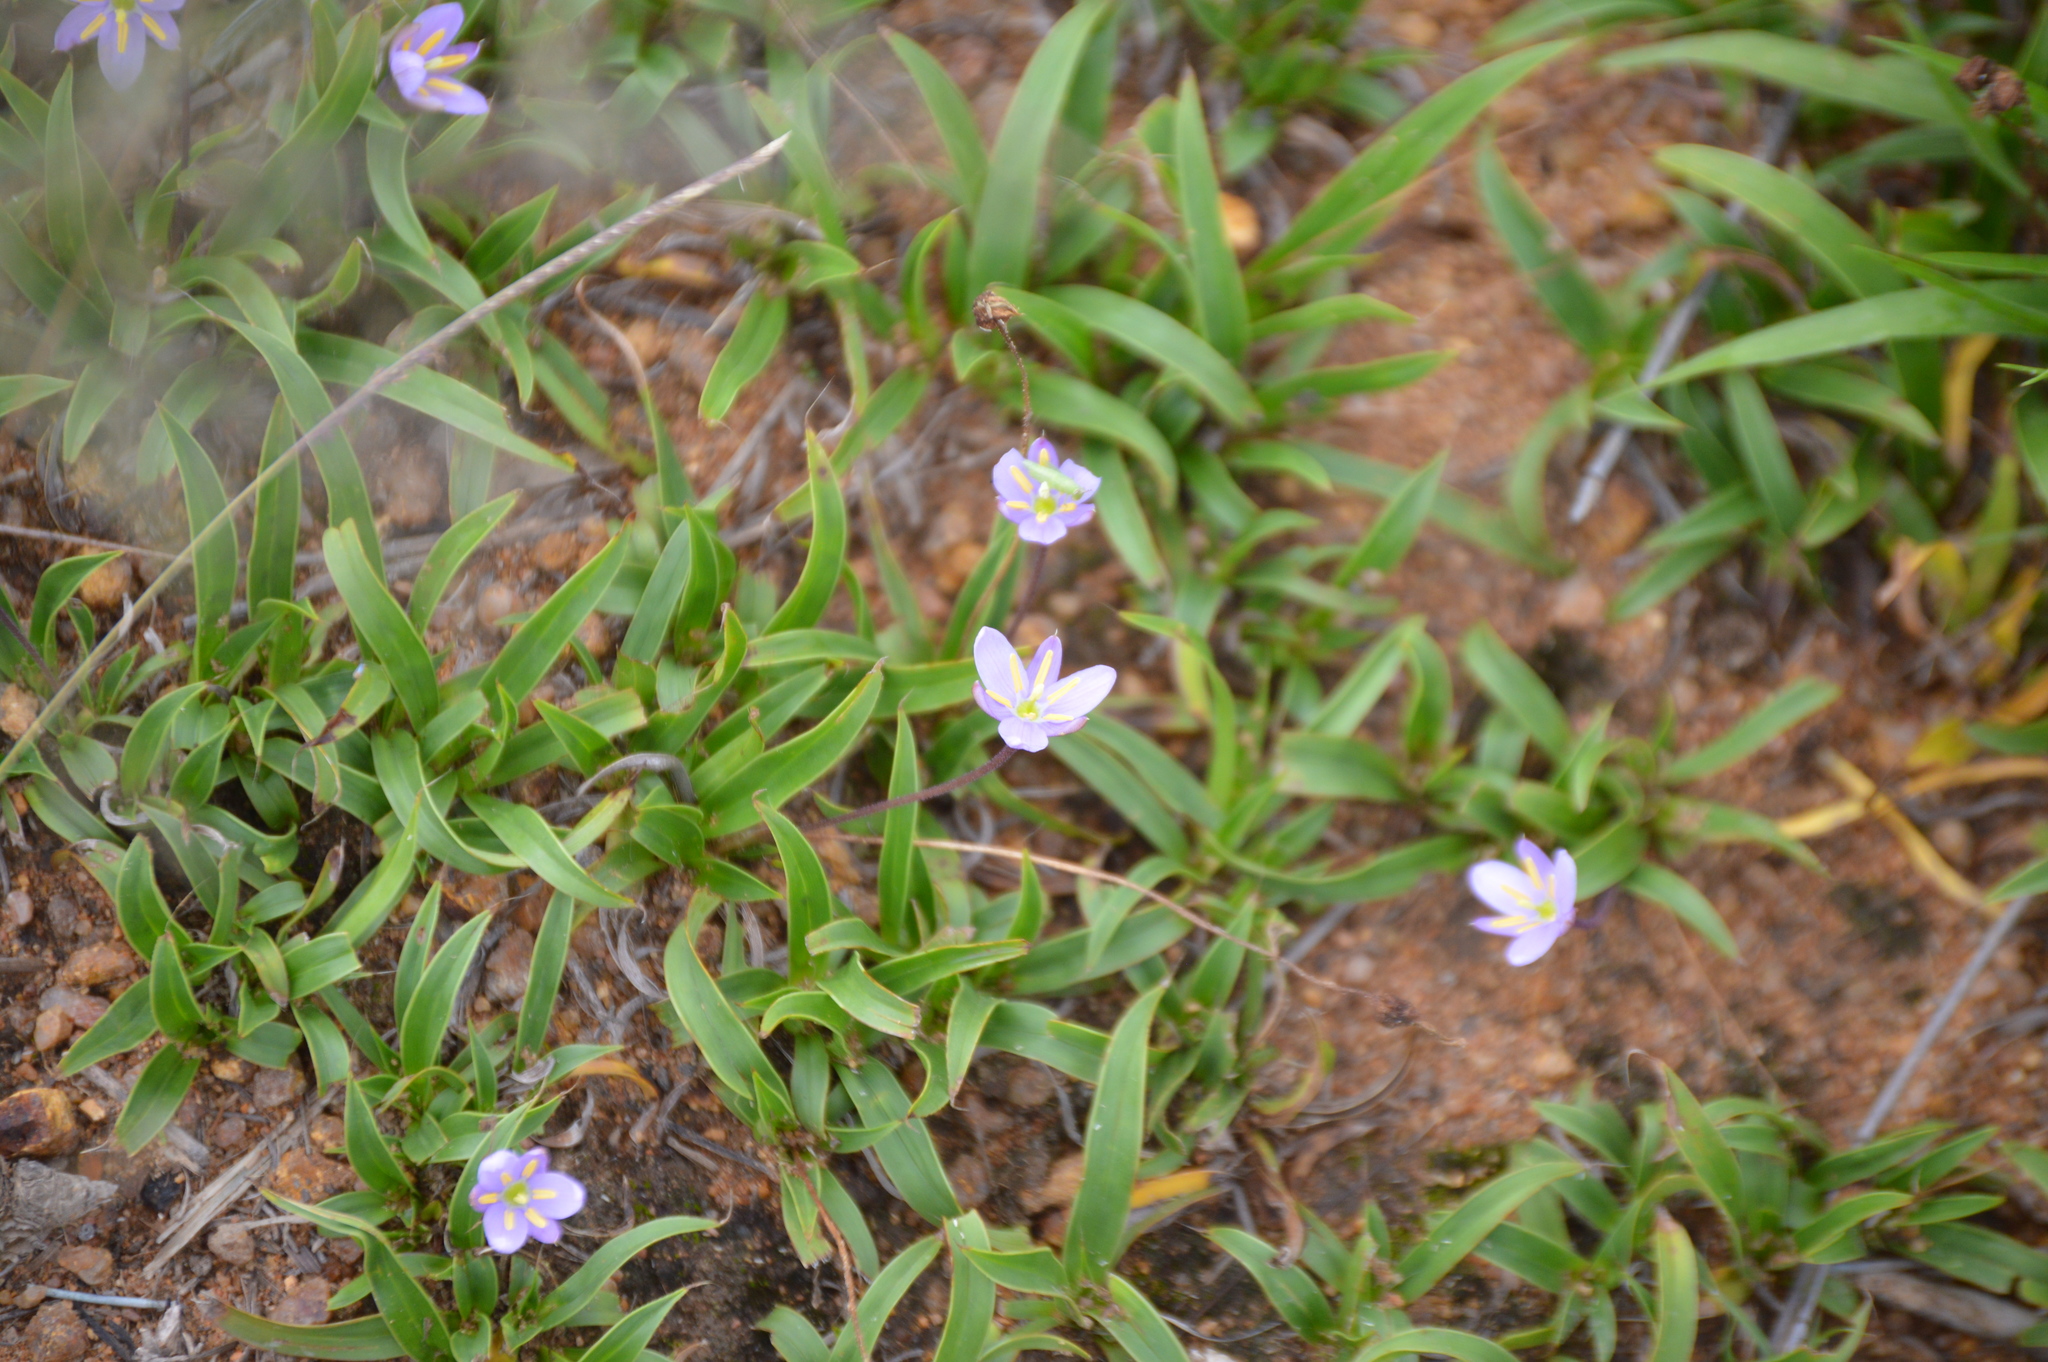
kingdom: Plantae
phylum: Tracheophyta
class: Liliopsida
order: Pandanales
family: Velloziaceae
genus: Xerophyta
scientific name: Xerophyta humilis
